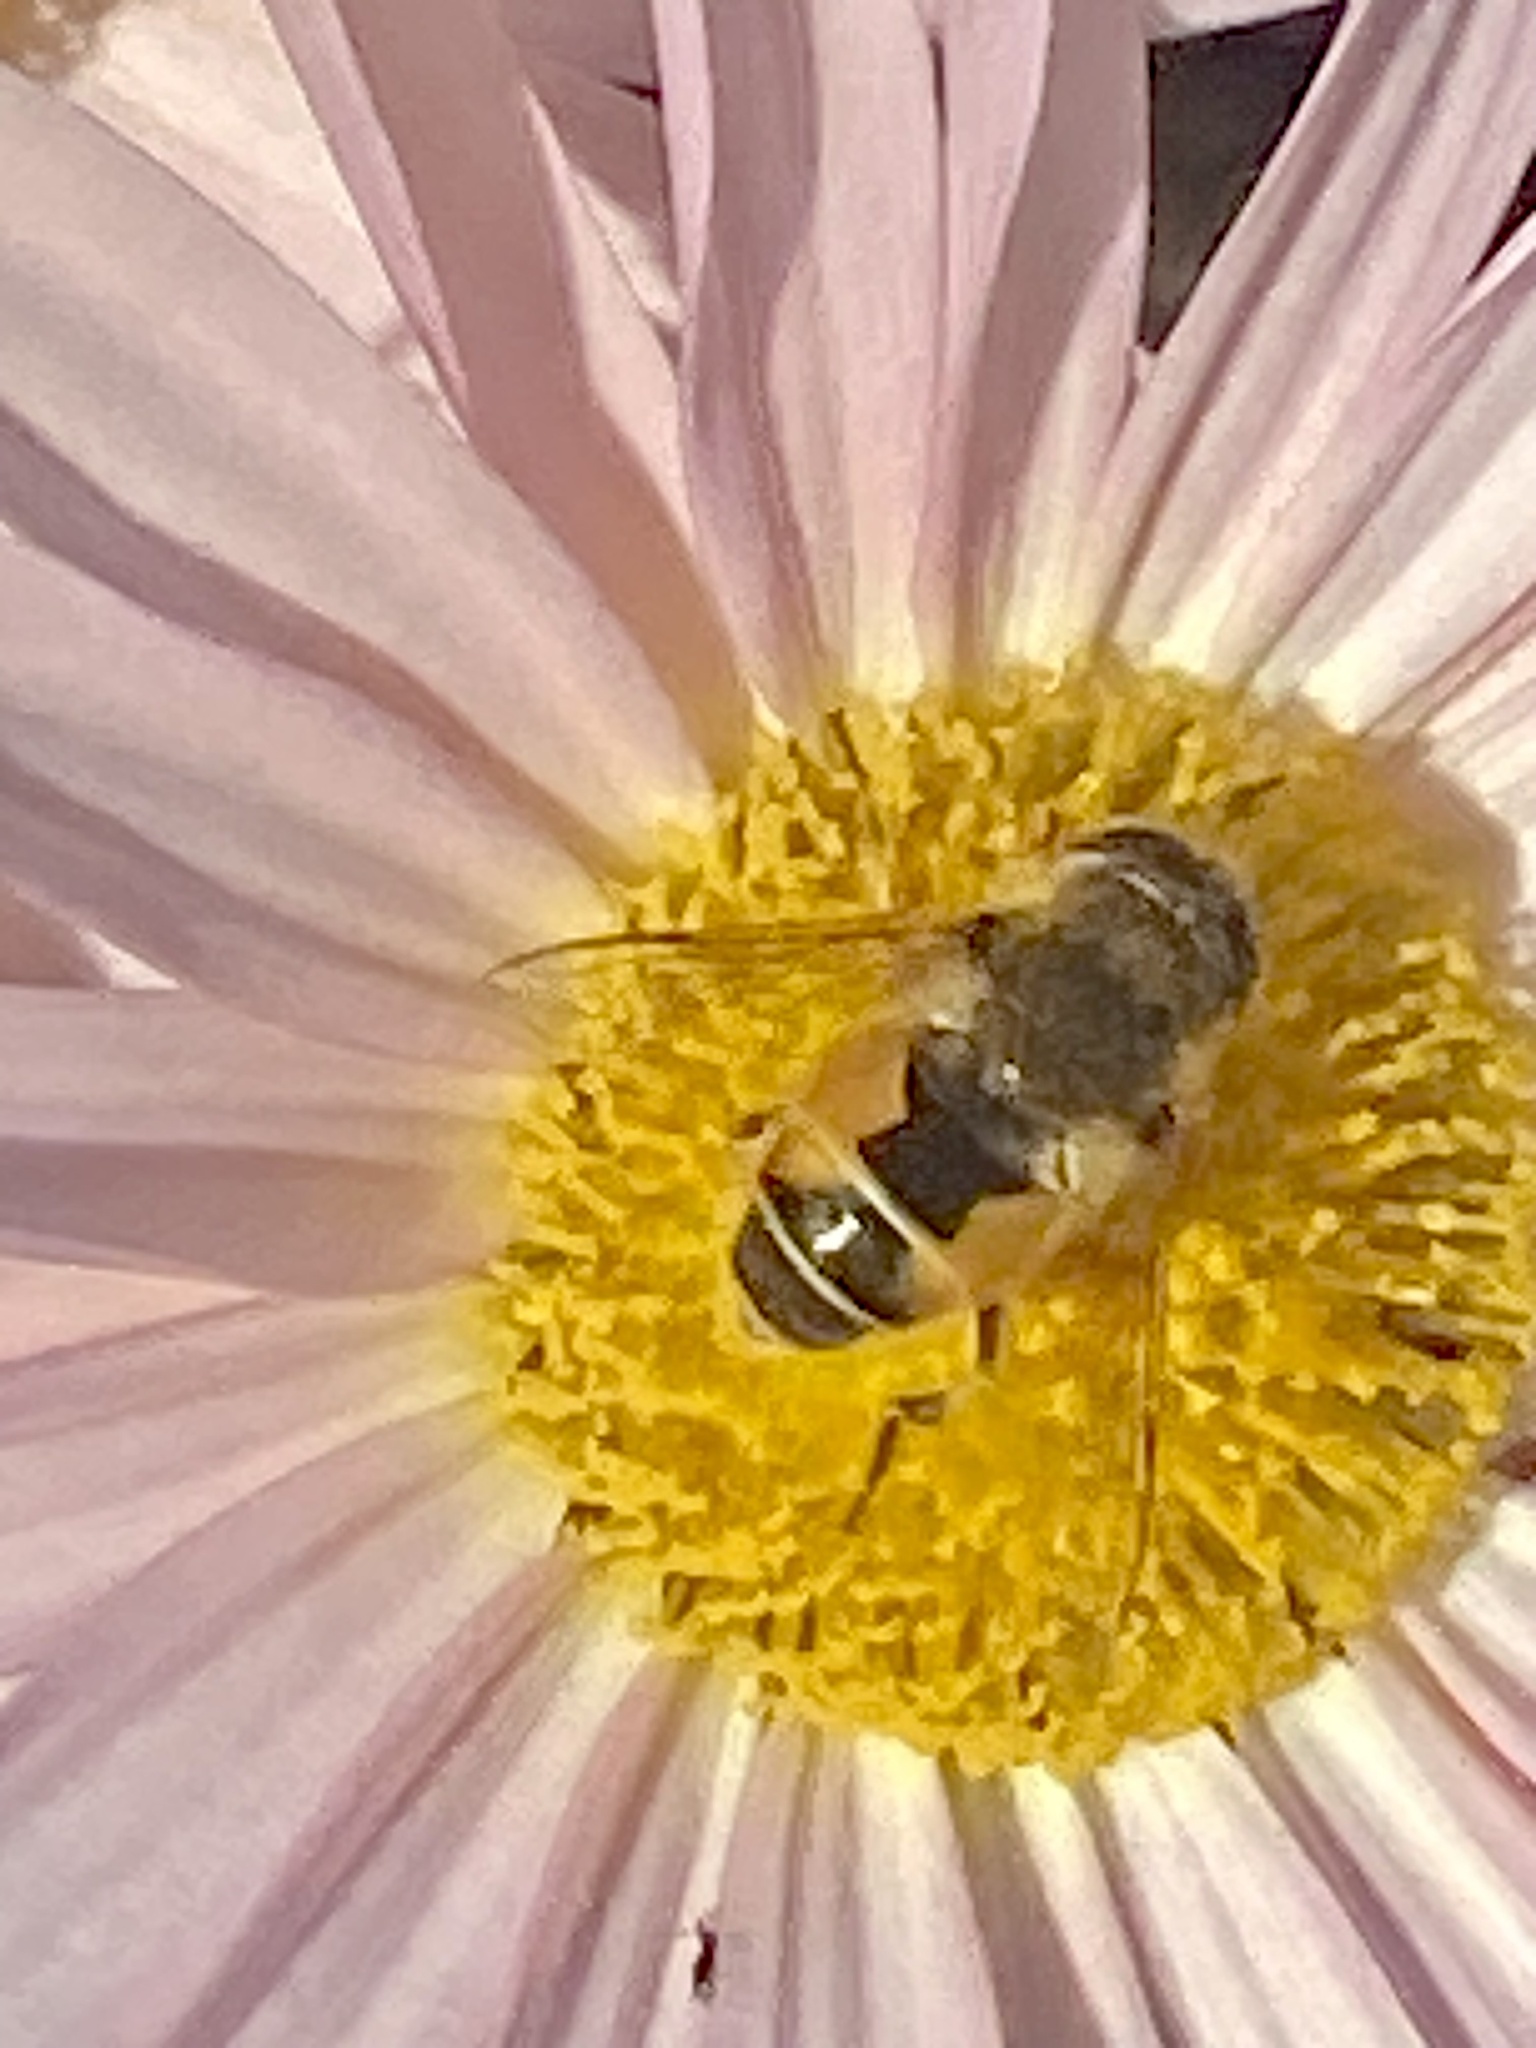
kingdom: Animalia
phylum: Arthropoda
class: Insecta
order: Diptera
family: Syrphidae
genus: Eristalis
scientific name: Eristalis arbustorum
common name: Hover fly
